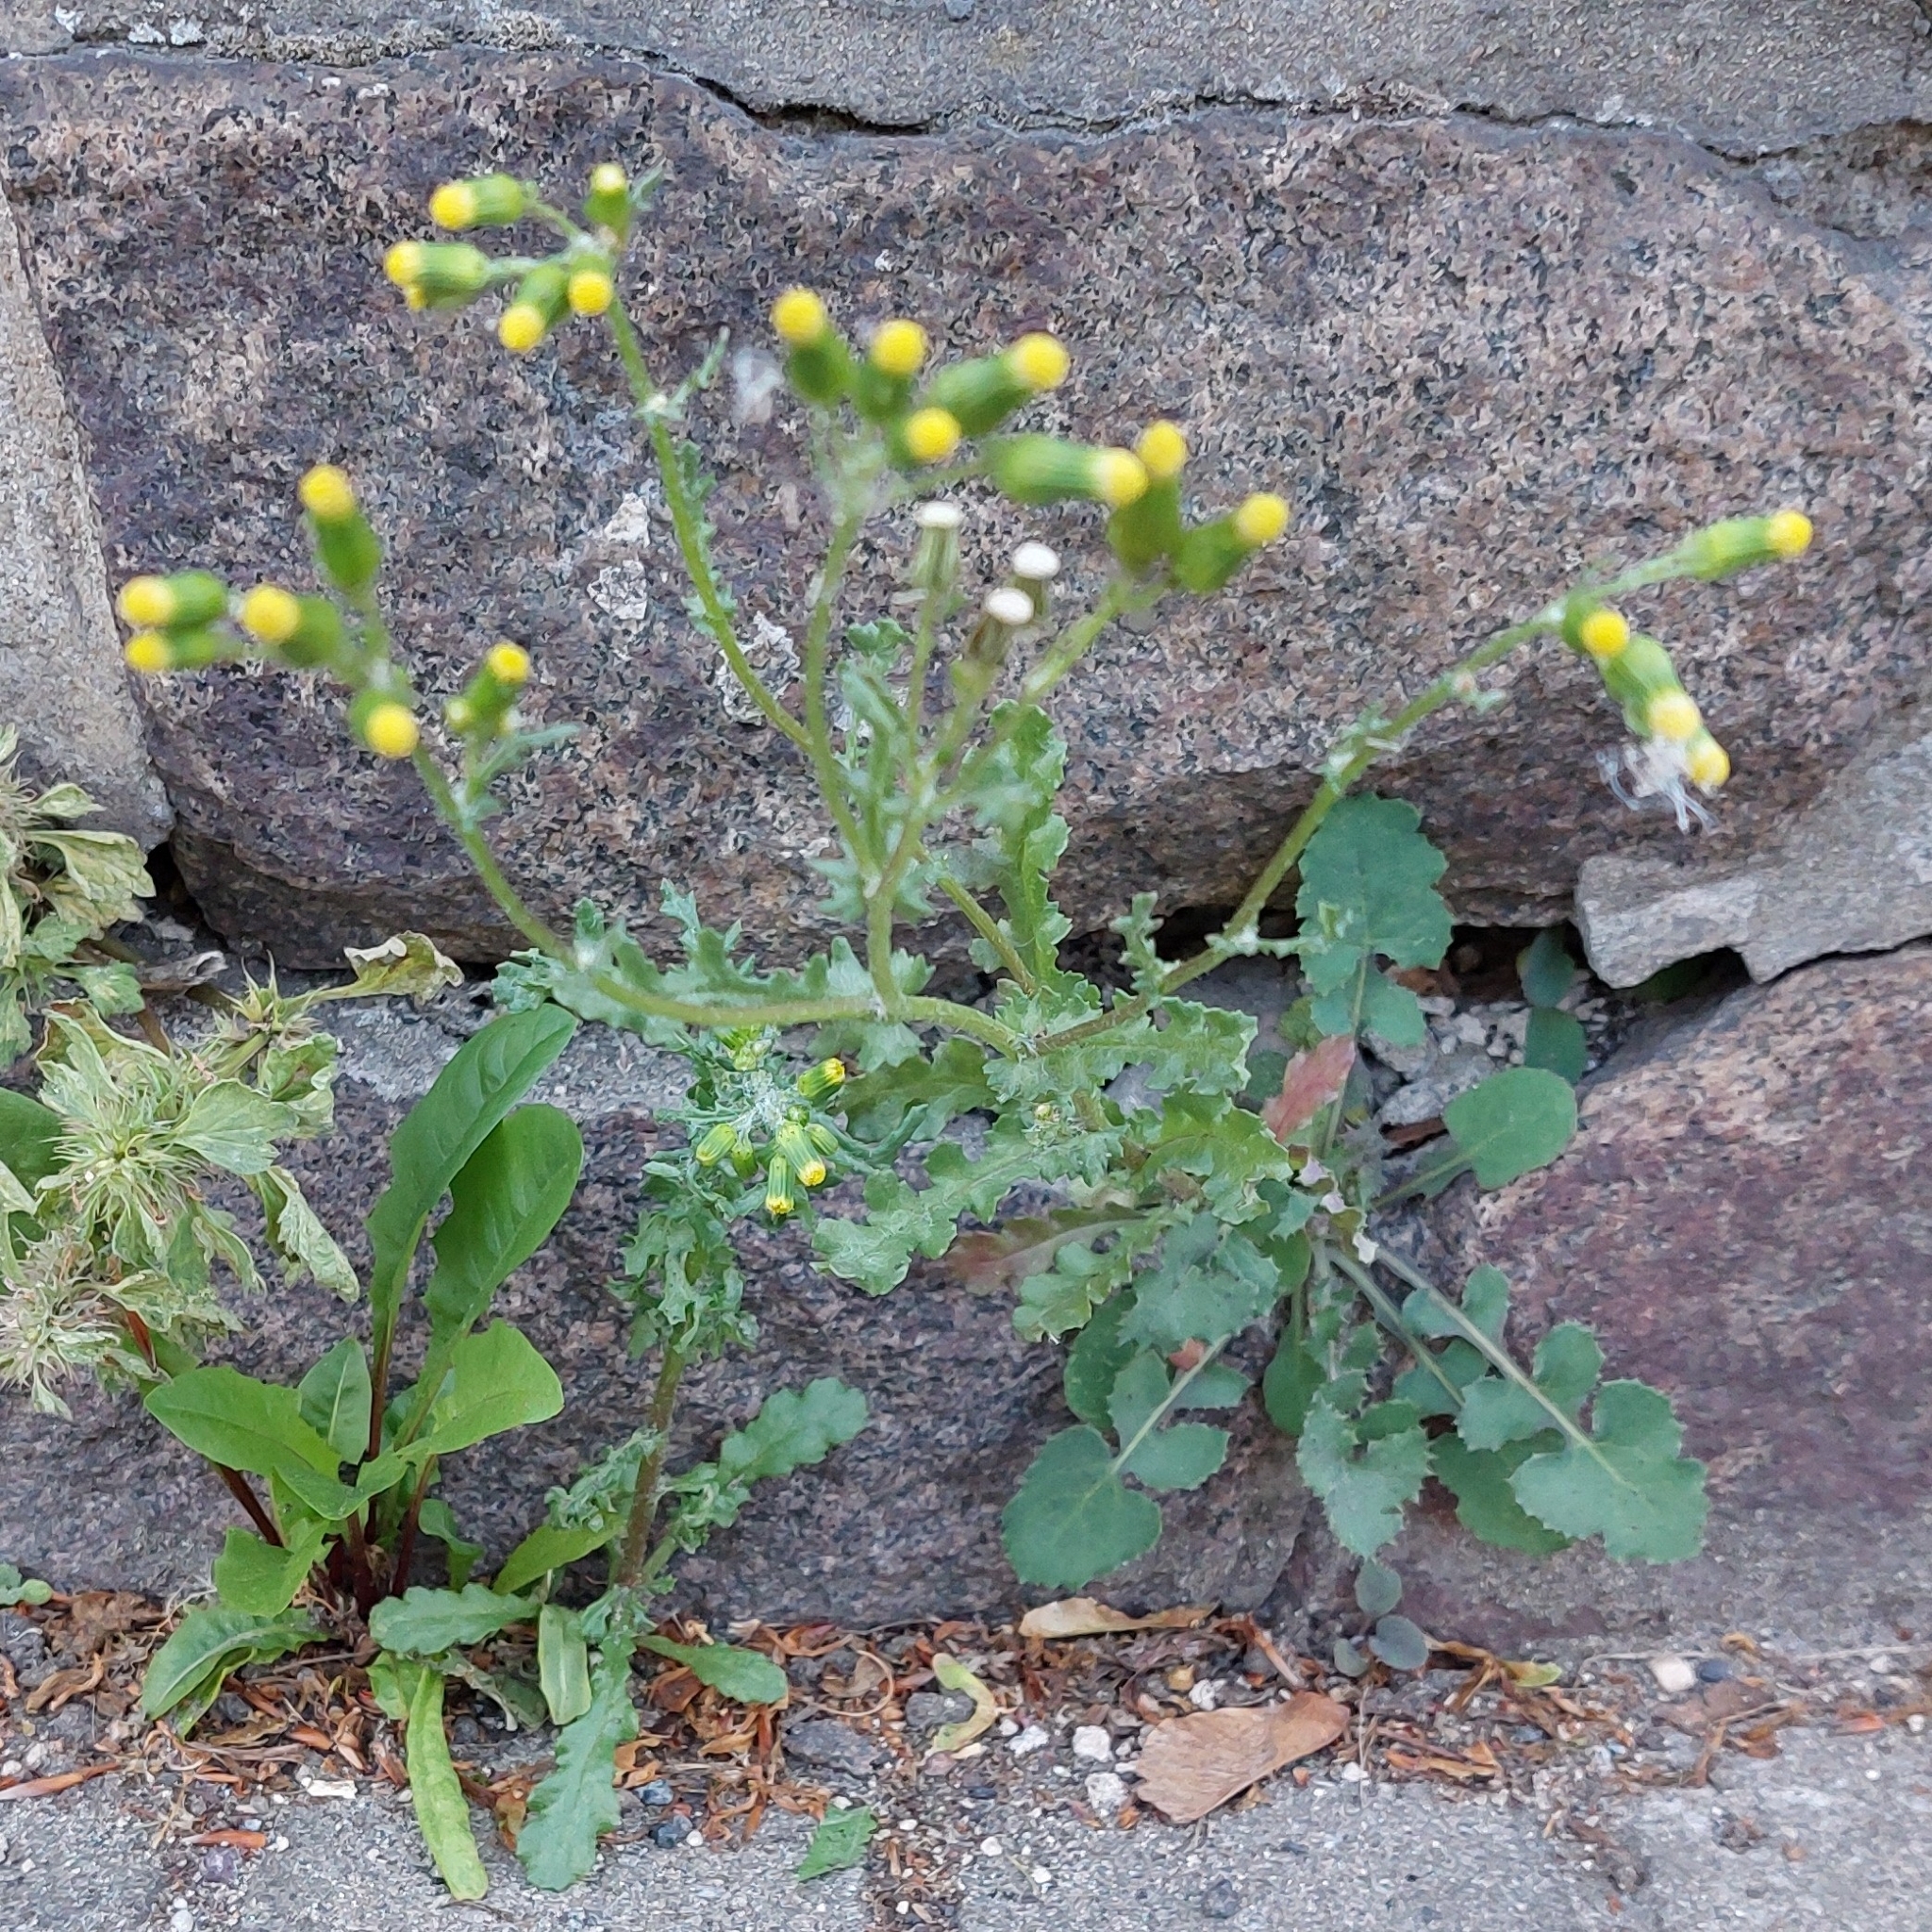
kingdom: Plantae
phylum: Tracheophyta
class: Magnoliopsida
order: Asterales
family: Asteraceae
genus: Senecio
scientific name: Senecio vulgaris
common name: Old-man-in-the-spring
